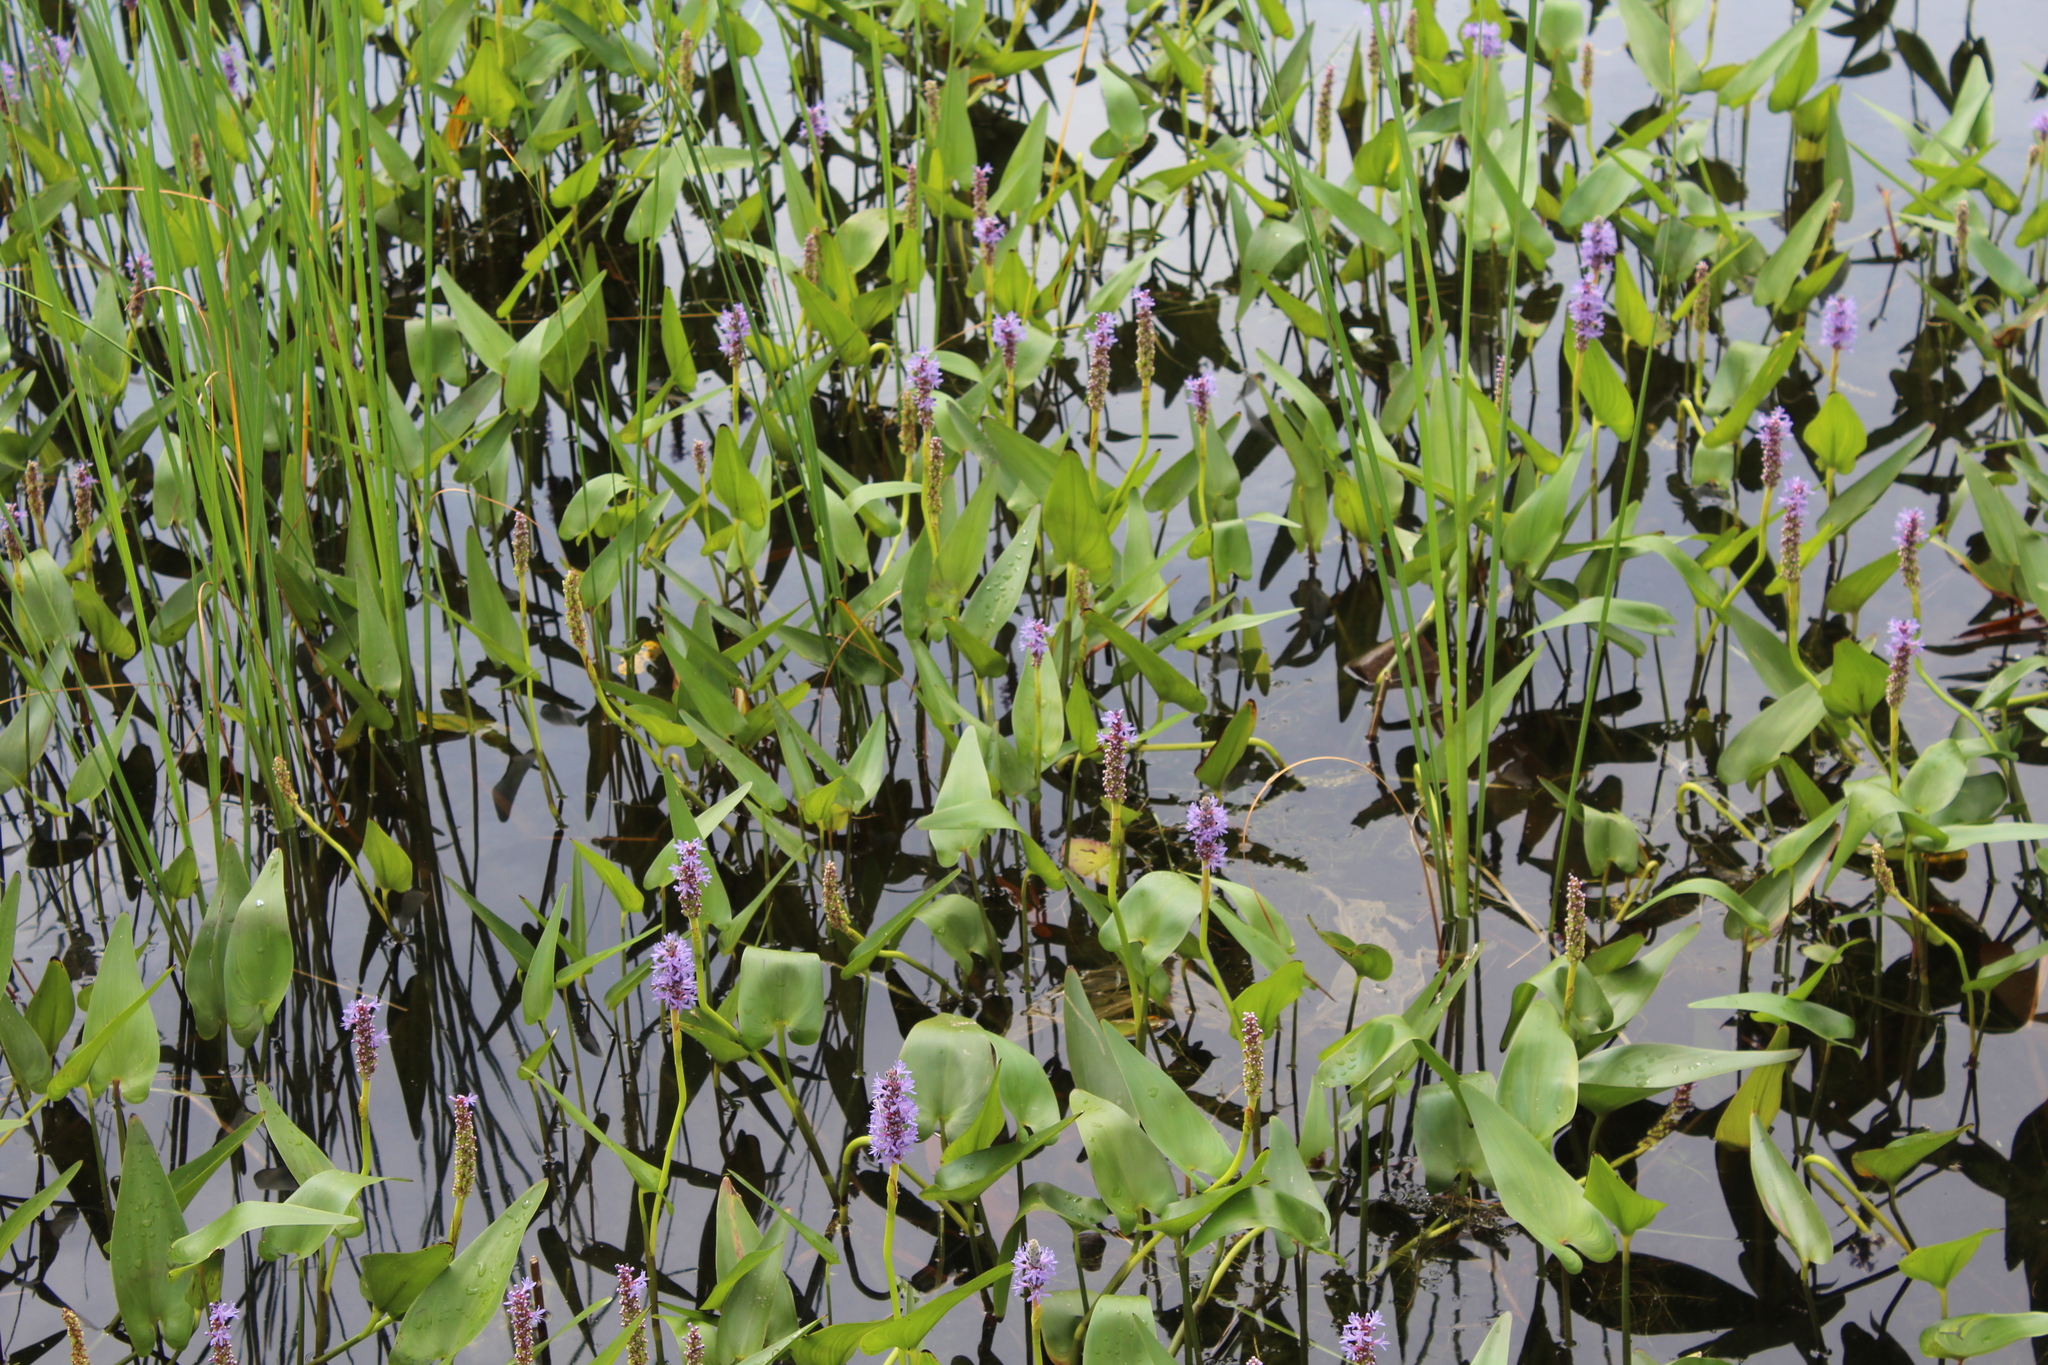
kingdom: Plantae
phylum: Tracheophyta
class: Liliopsida
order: Commelinales
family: Pontederiaceae
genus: Pontederia
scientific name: Pontederia cordata
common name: Pickerelweed
